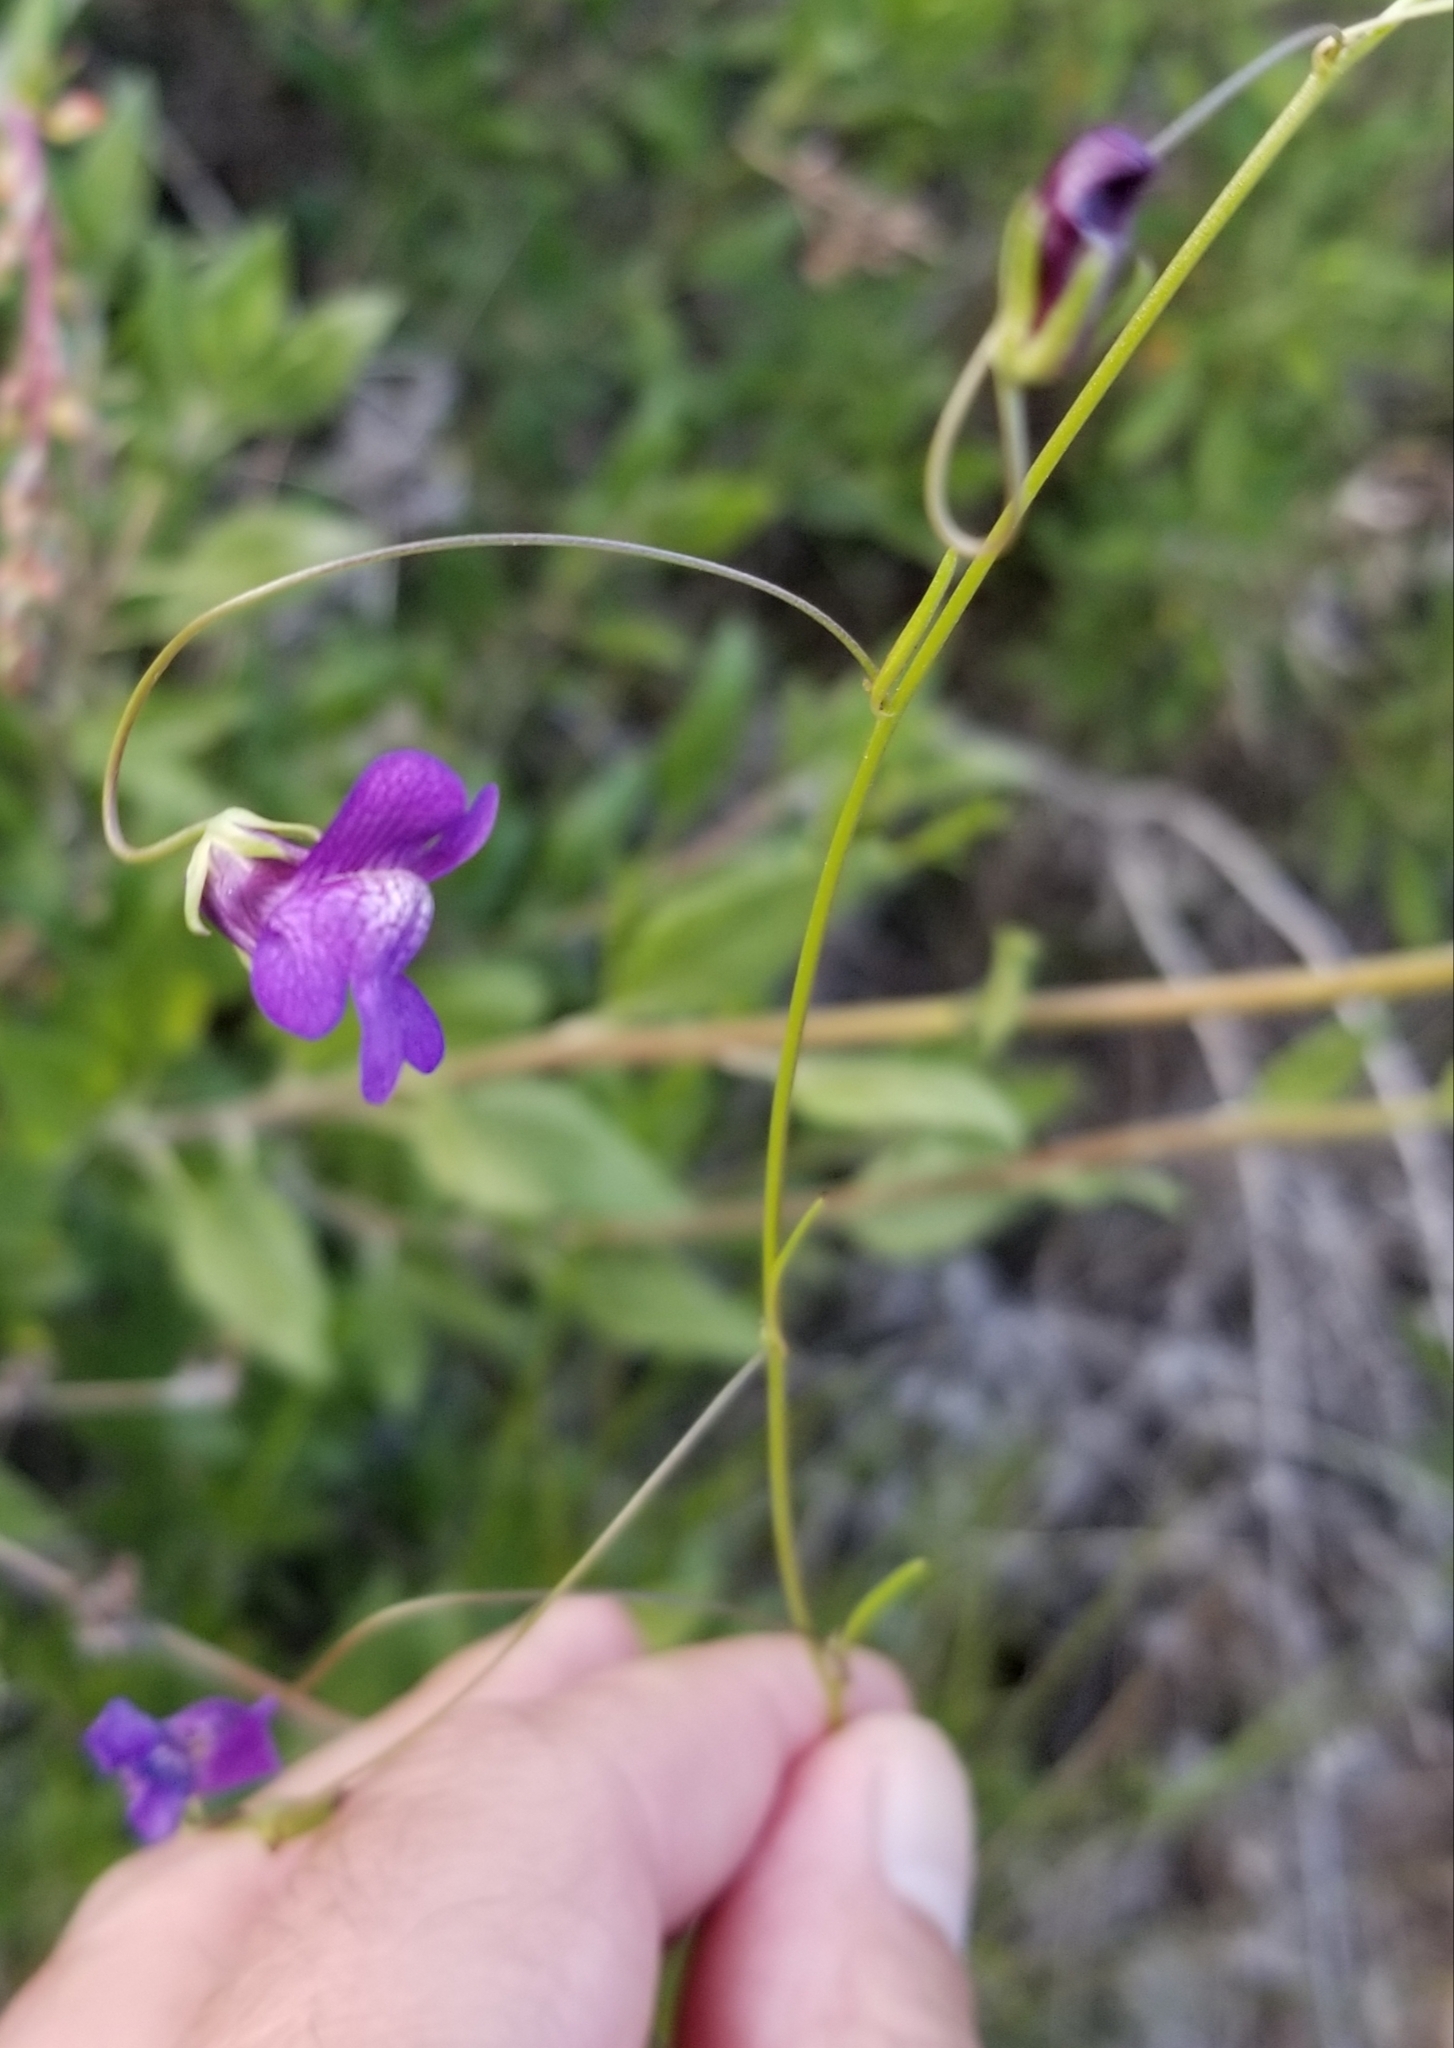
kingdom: Plantae
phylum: Tracheophyta
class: Magnoliopsida
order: Lamiales
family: Plantaginaceae
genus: Neogaerrhinum
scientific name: Neogaerrhinum strictum
